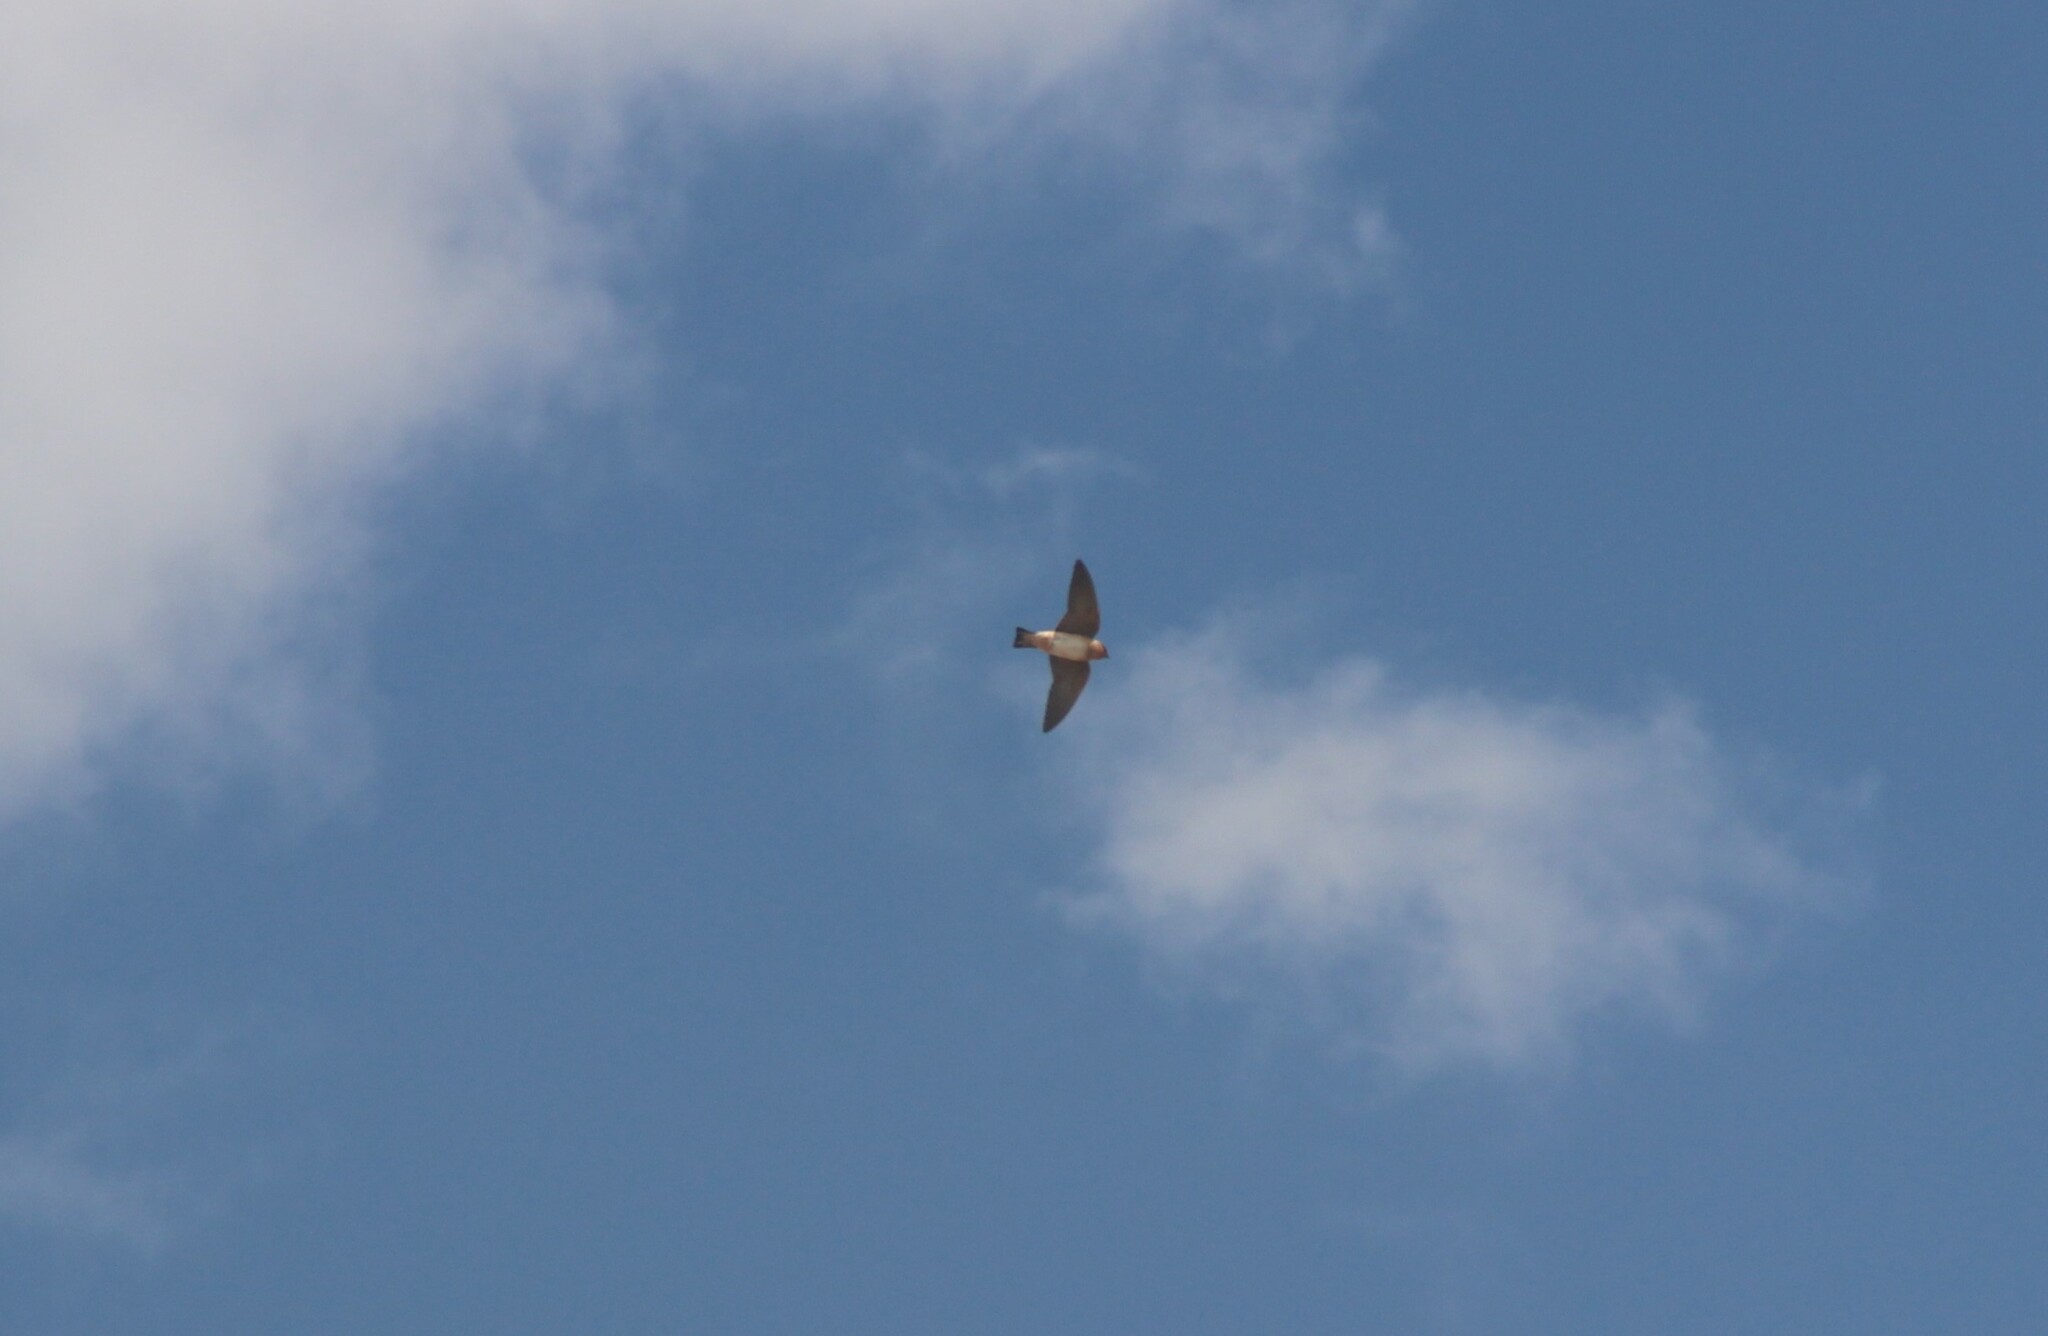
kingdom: Animalia
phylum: Chordata
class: Aves
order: Passeriformes
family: Hirundinidae
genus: Petrochelidon
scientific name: Petrochelidon fulva
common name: Cave swallow
